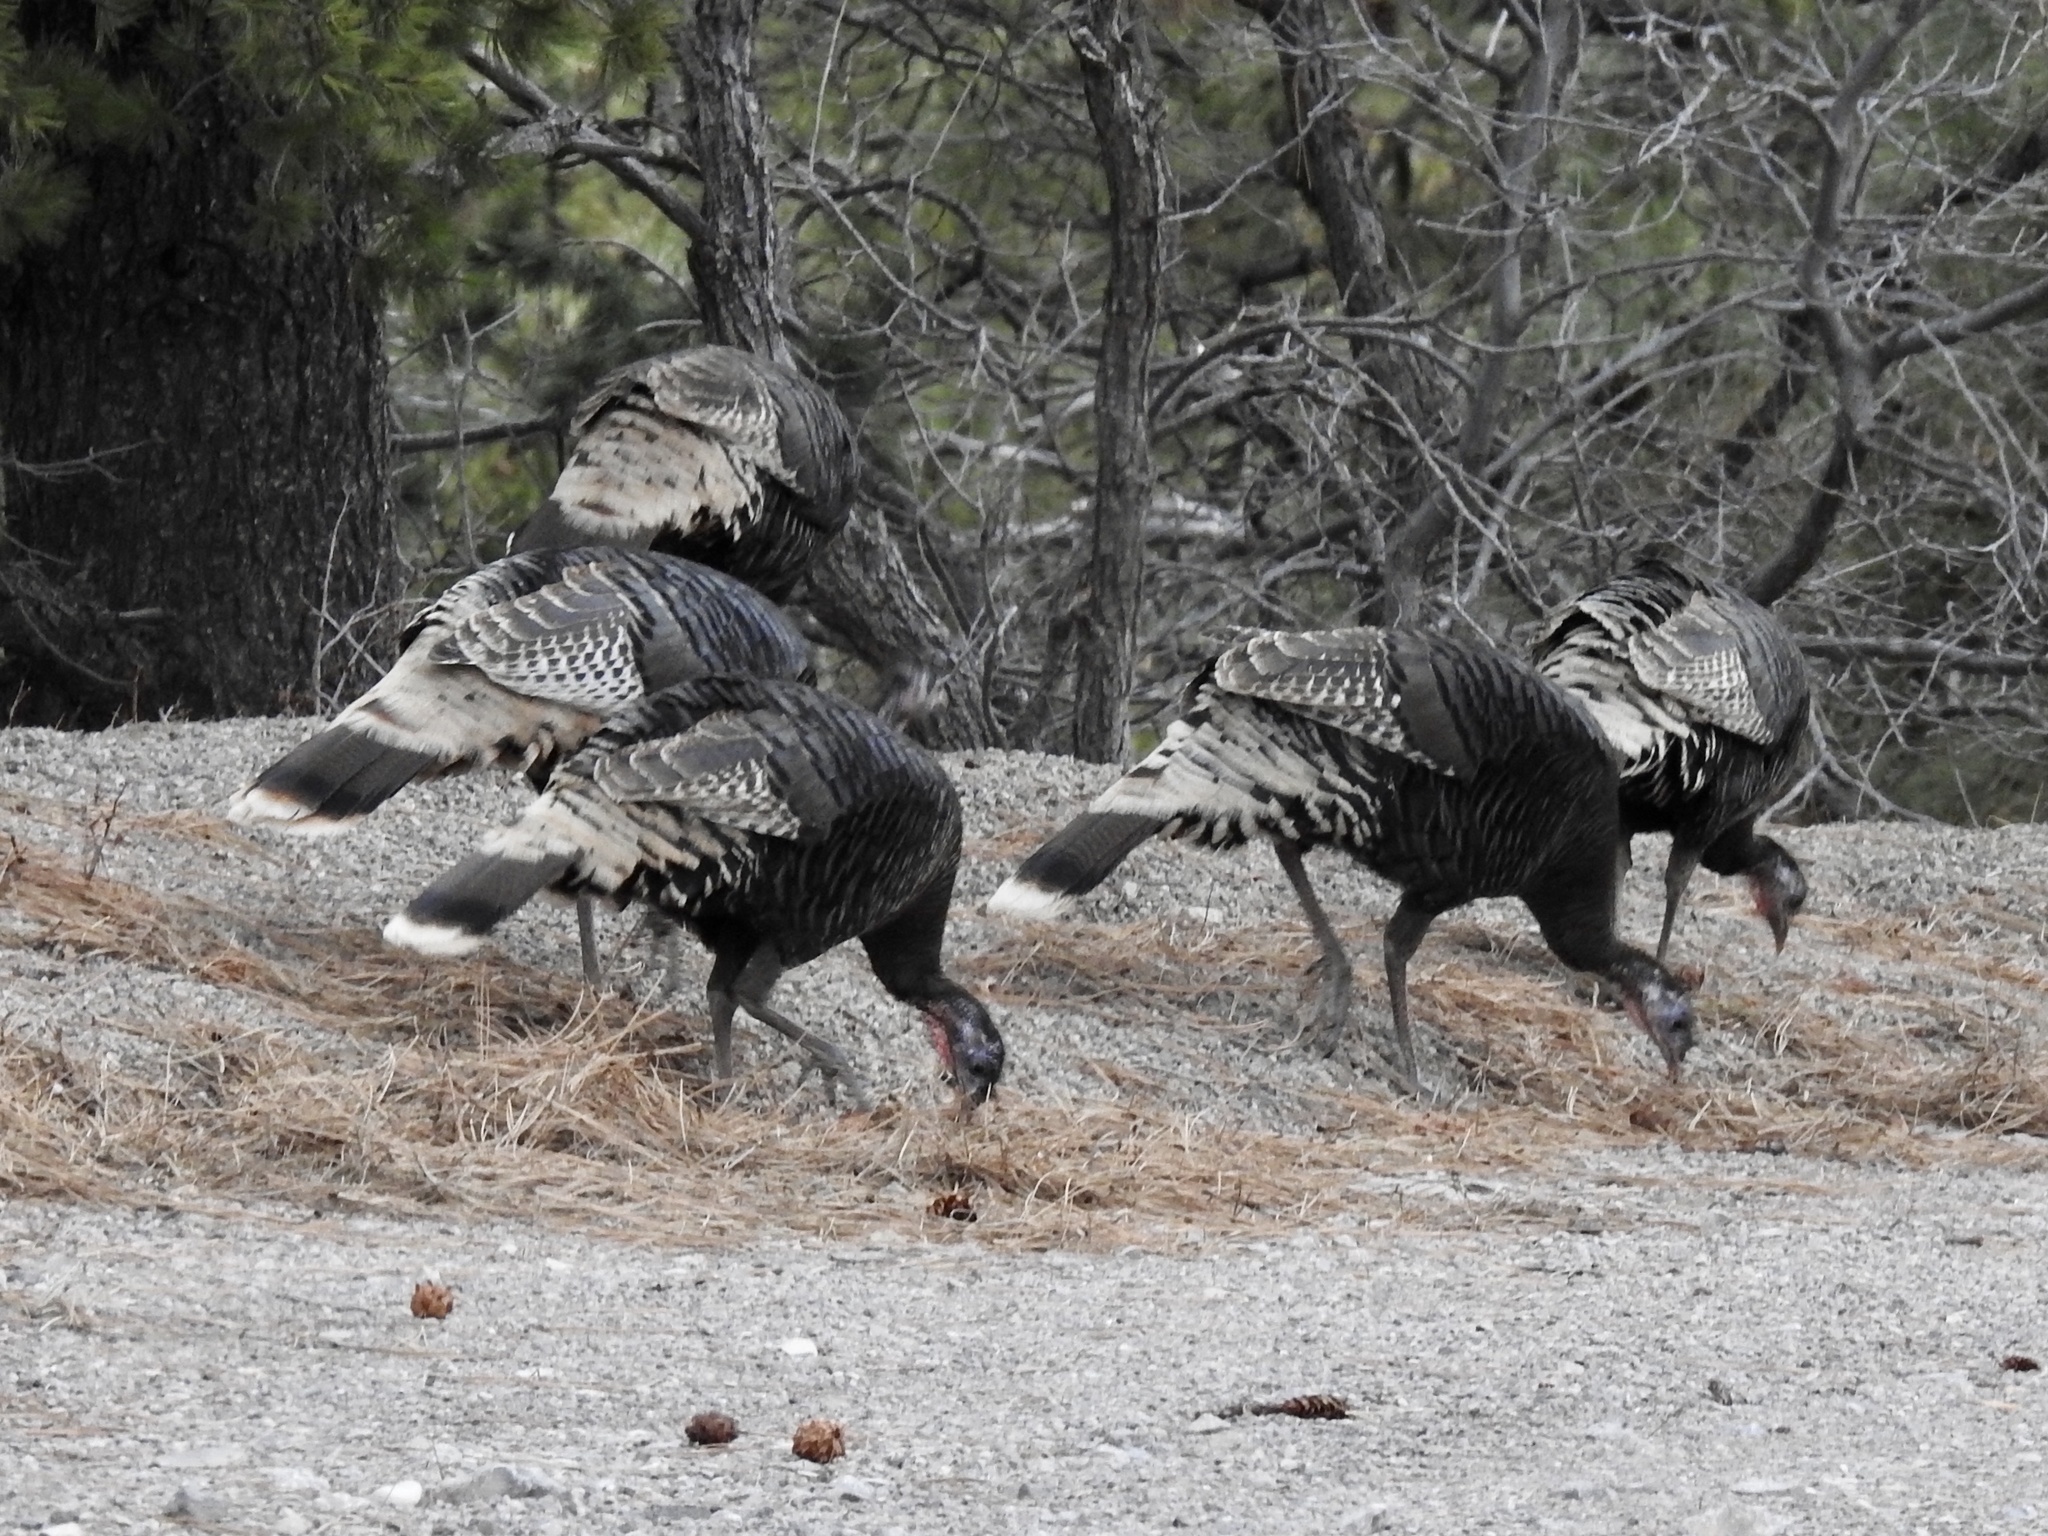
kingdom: Animalia
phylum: Chordata
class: Aves
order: Galliformes
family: Phasianidae
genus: Meleagris
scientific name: Meleagris gallopavo
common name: Wild turkey
